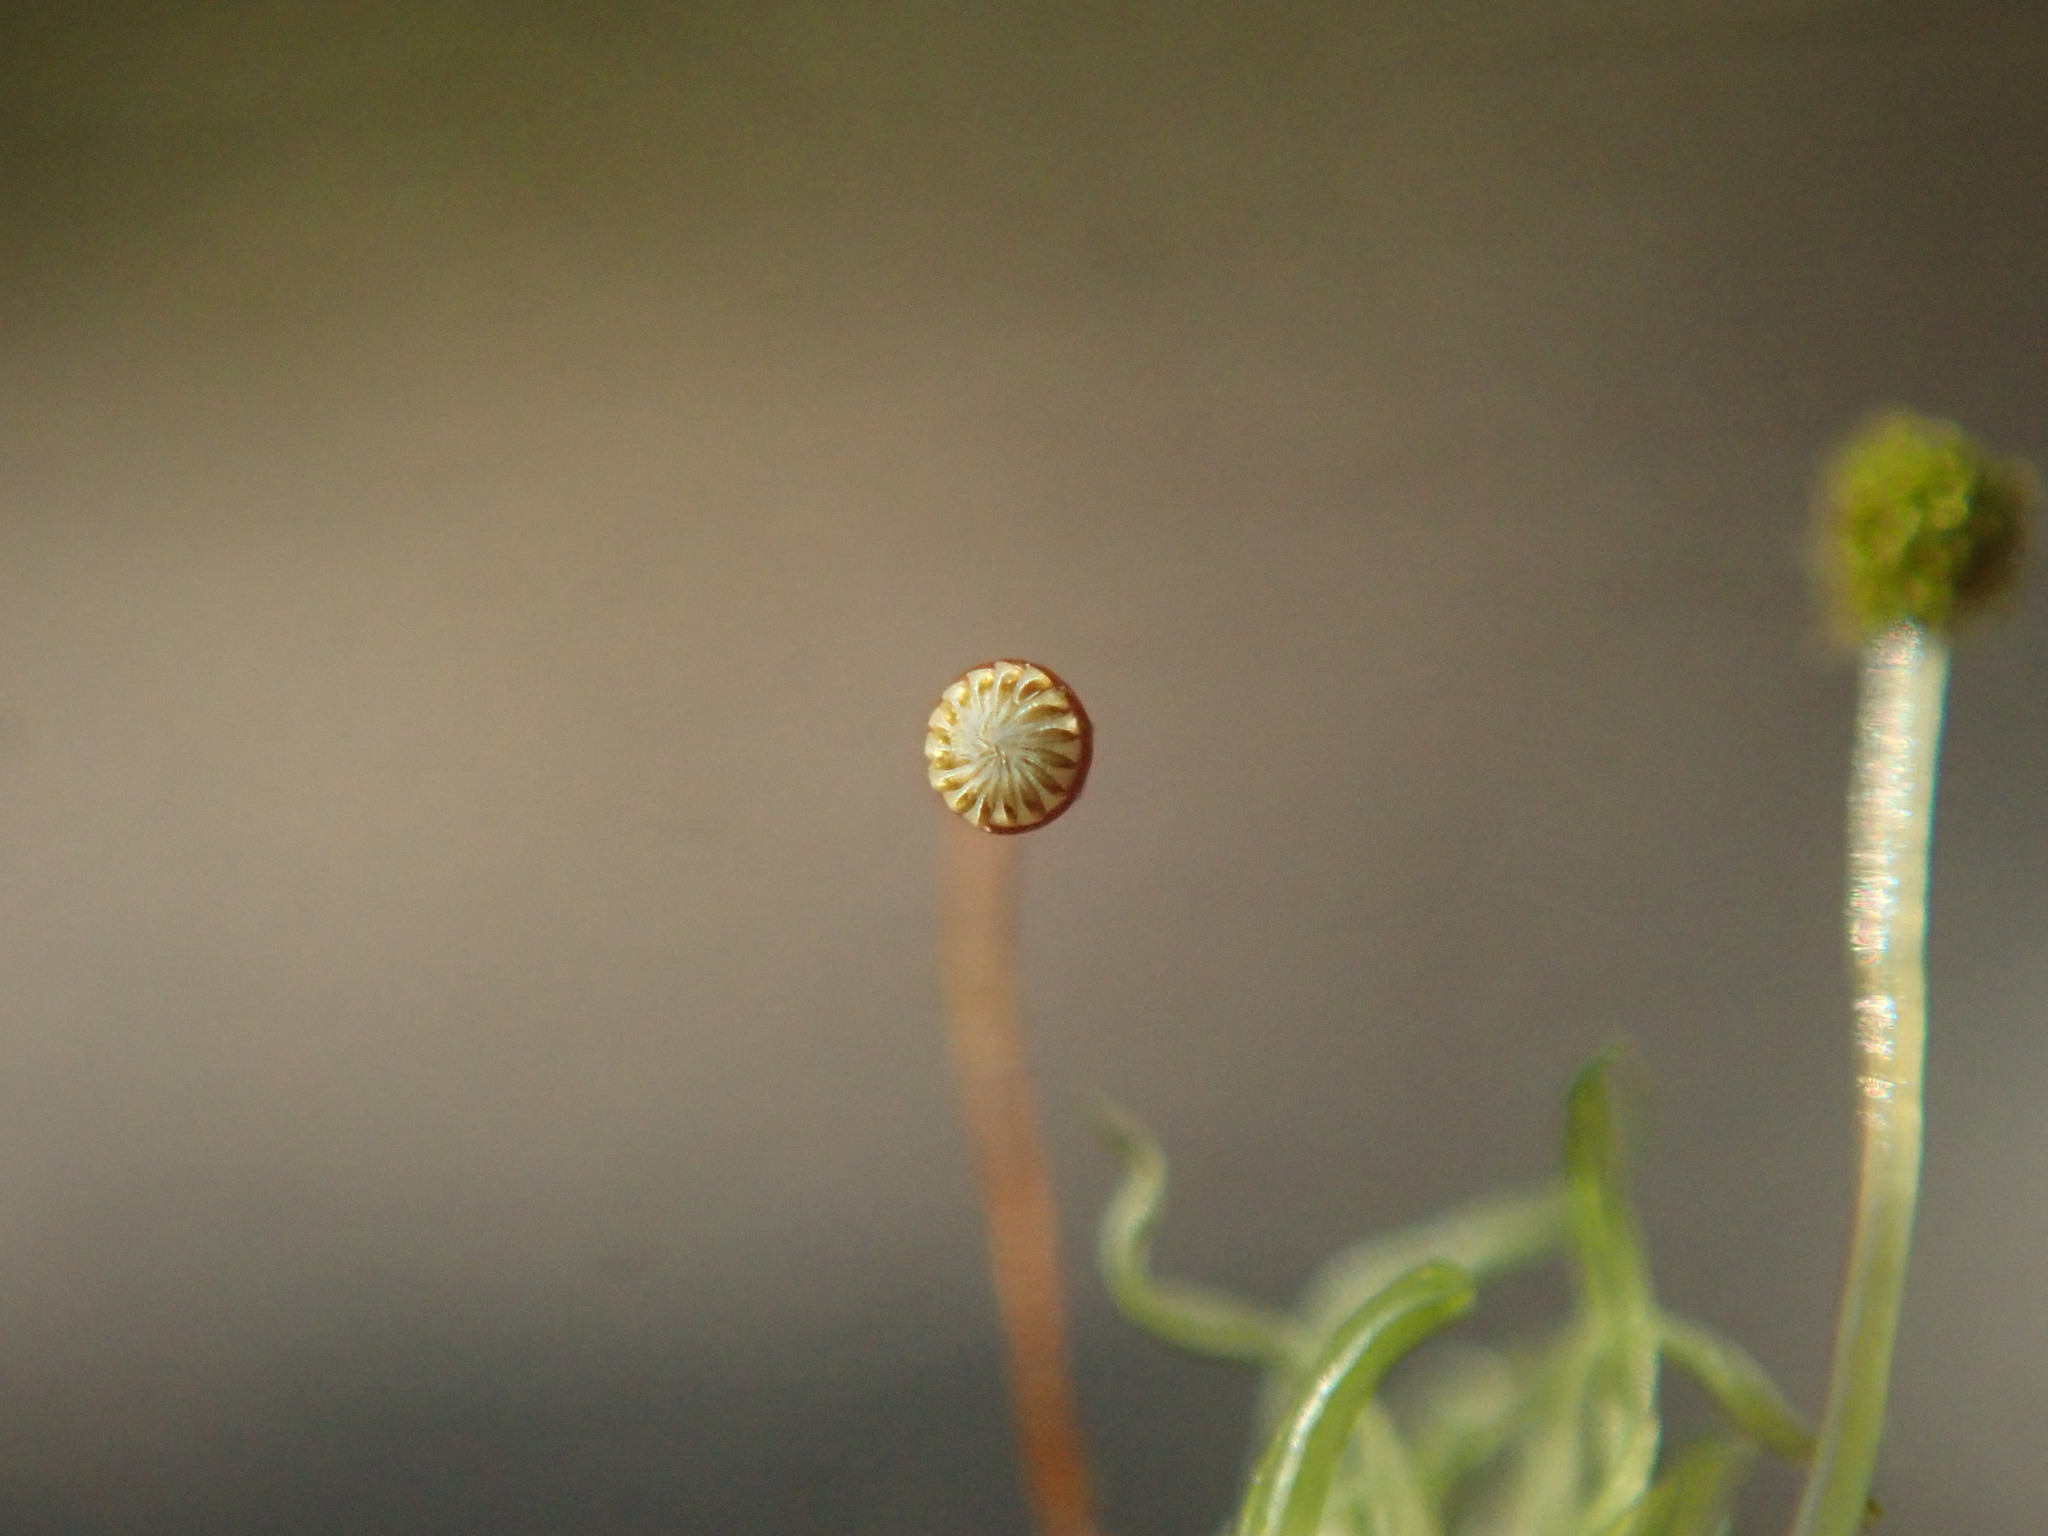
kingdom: Plantae
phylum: Bryophyta
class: Bryopsida
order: Aulacomniales
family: Aulacomniaceae
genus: Aulacomnium
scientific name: Aulacomnium androgynum
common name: Little groove moss
